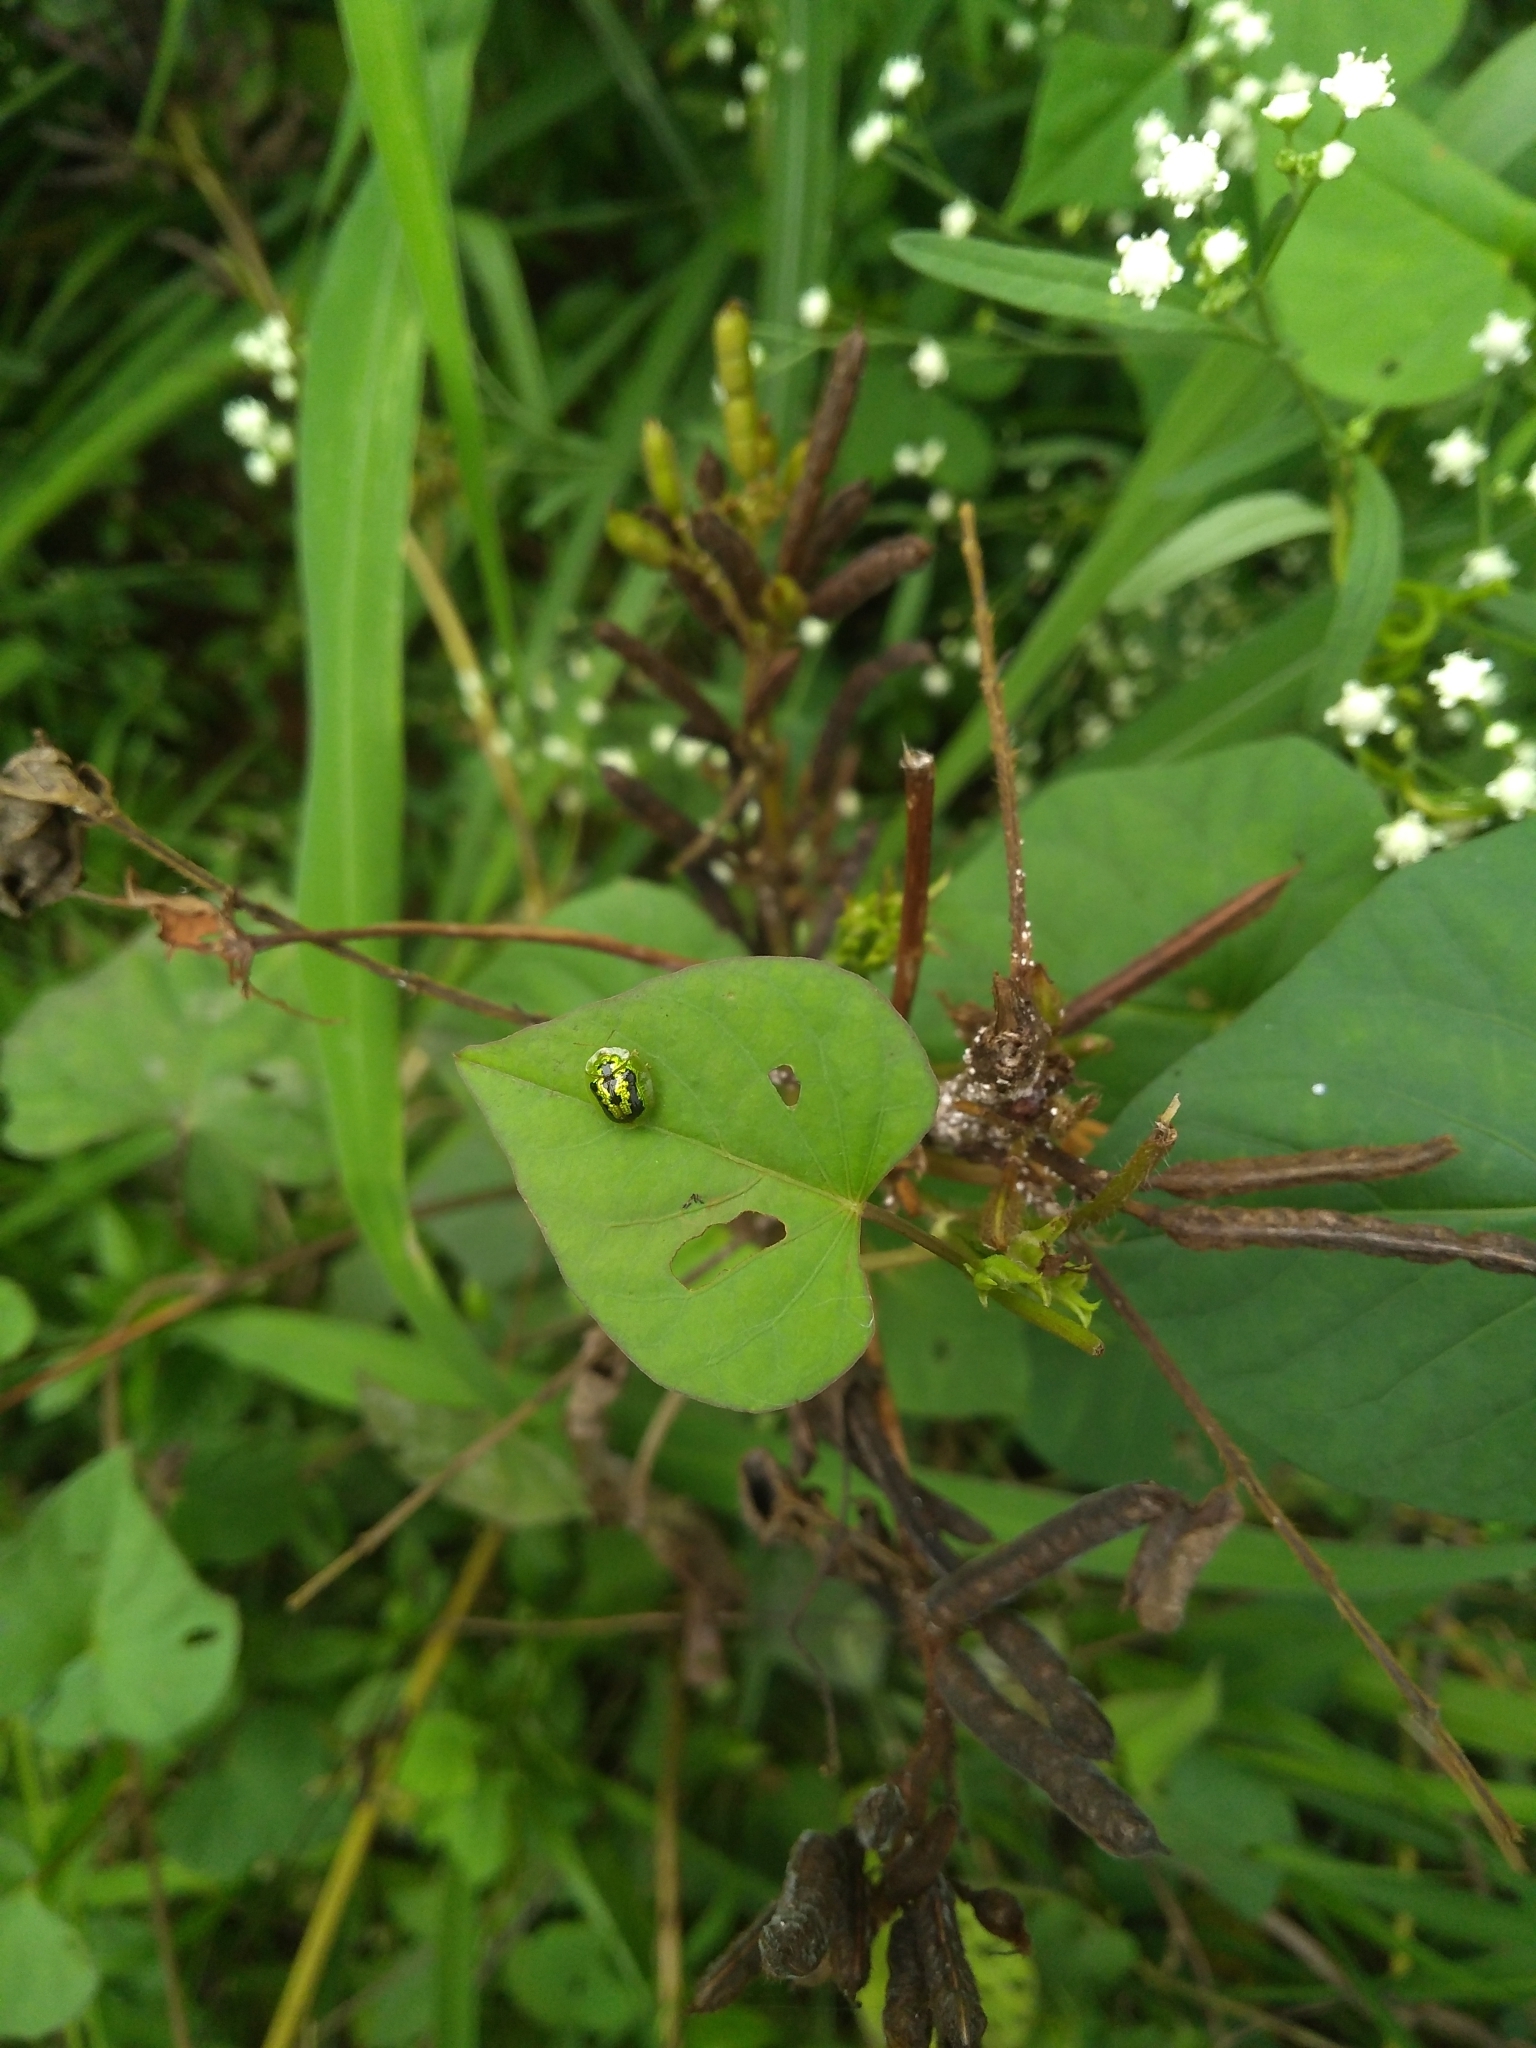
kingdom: Animalia
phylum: Arthropoda
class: Insecta
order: Coleoptera
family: Chrysomelidae
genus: Cassida
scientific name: Cassida circumdata
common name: Tortoise beetle
